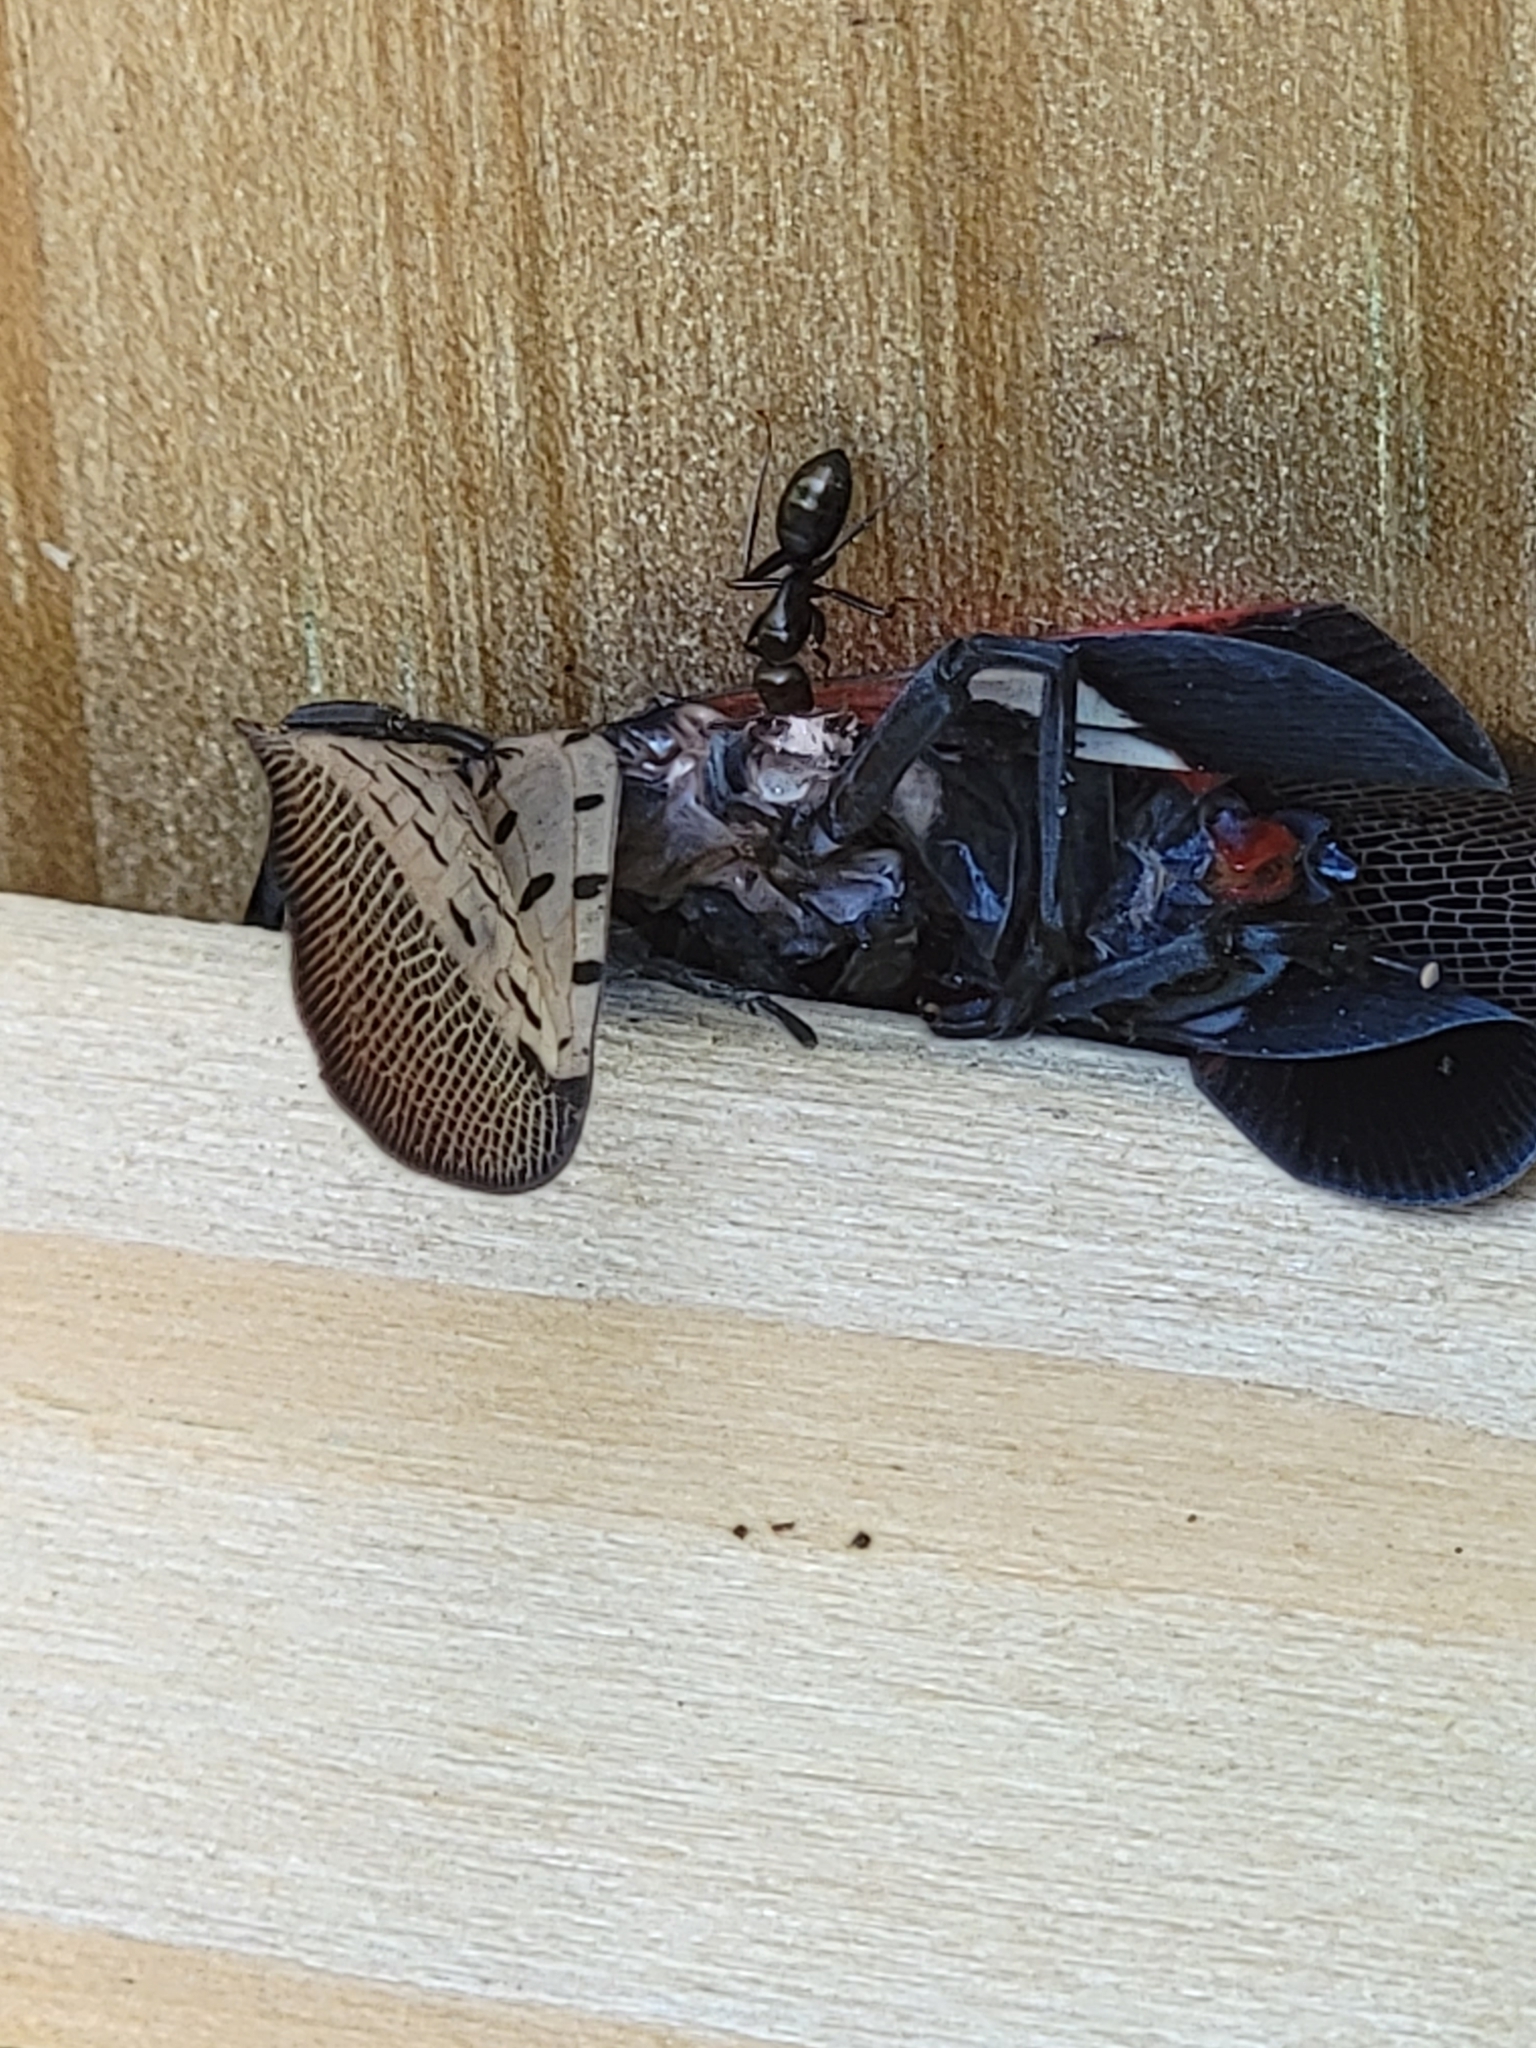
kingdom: Animalia
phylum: Arthropoda
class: Insecta
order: Hemiptera
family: Fulgoridae
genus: Lycorma
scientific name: Lycorma delicatula
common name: Spotted lanternfly
